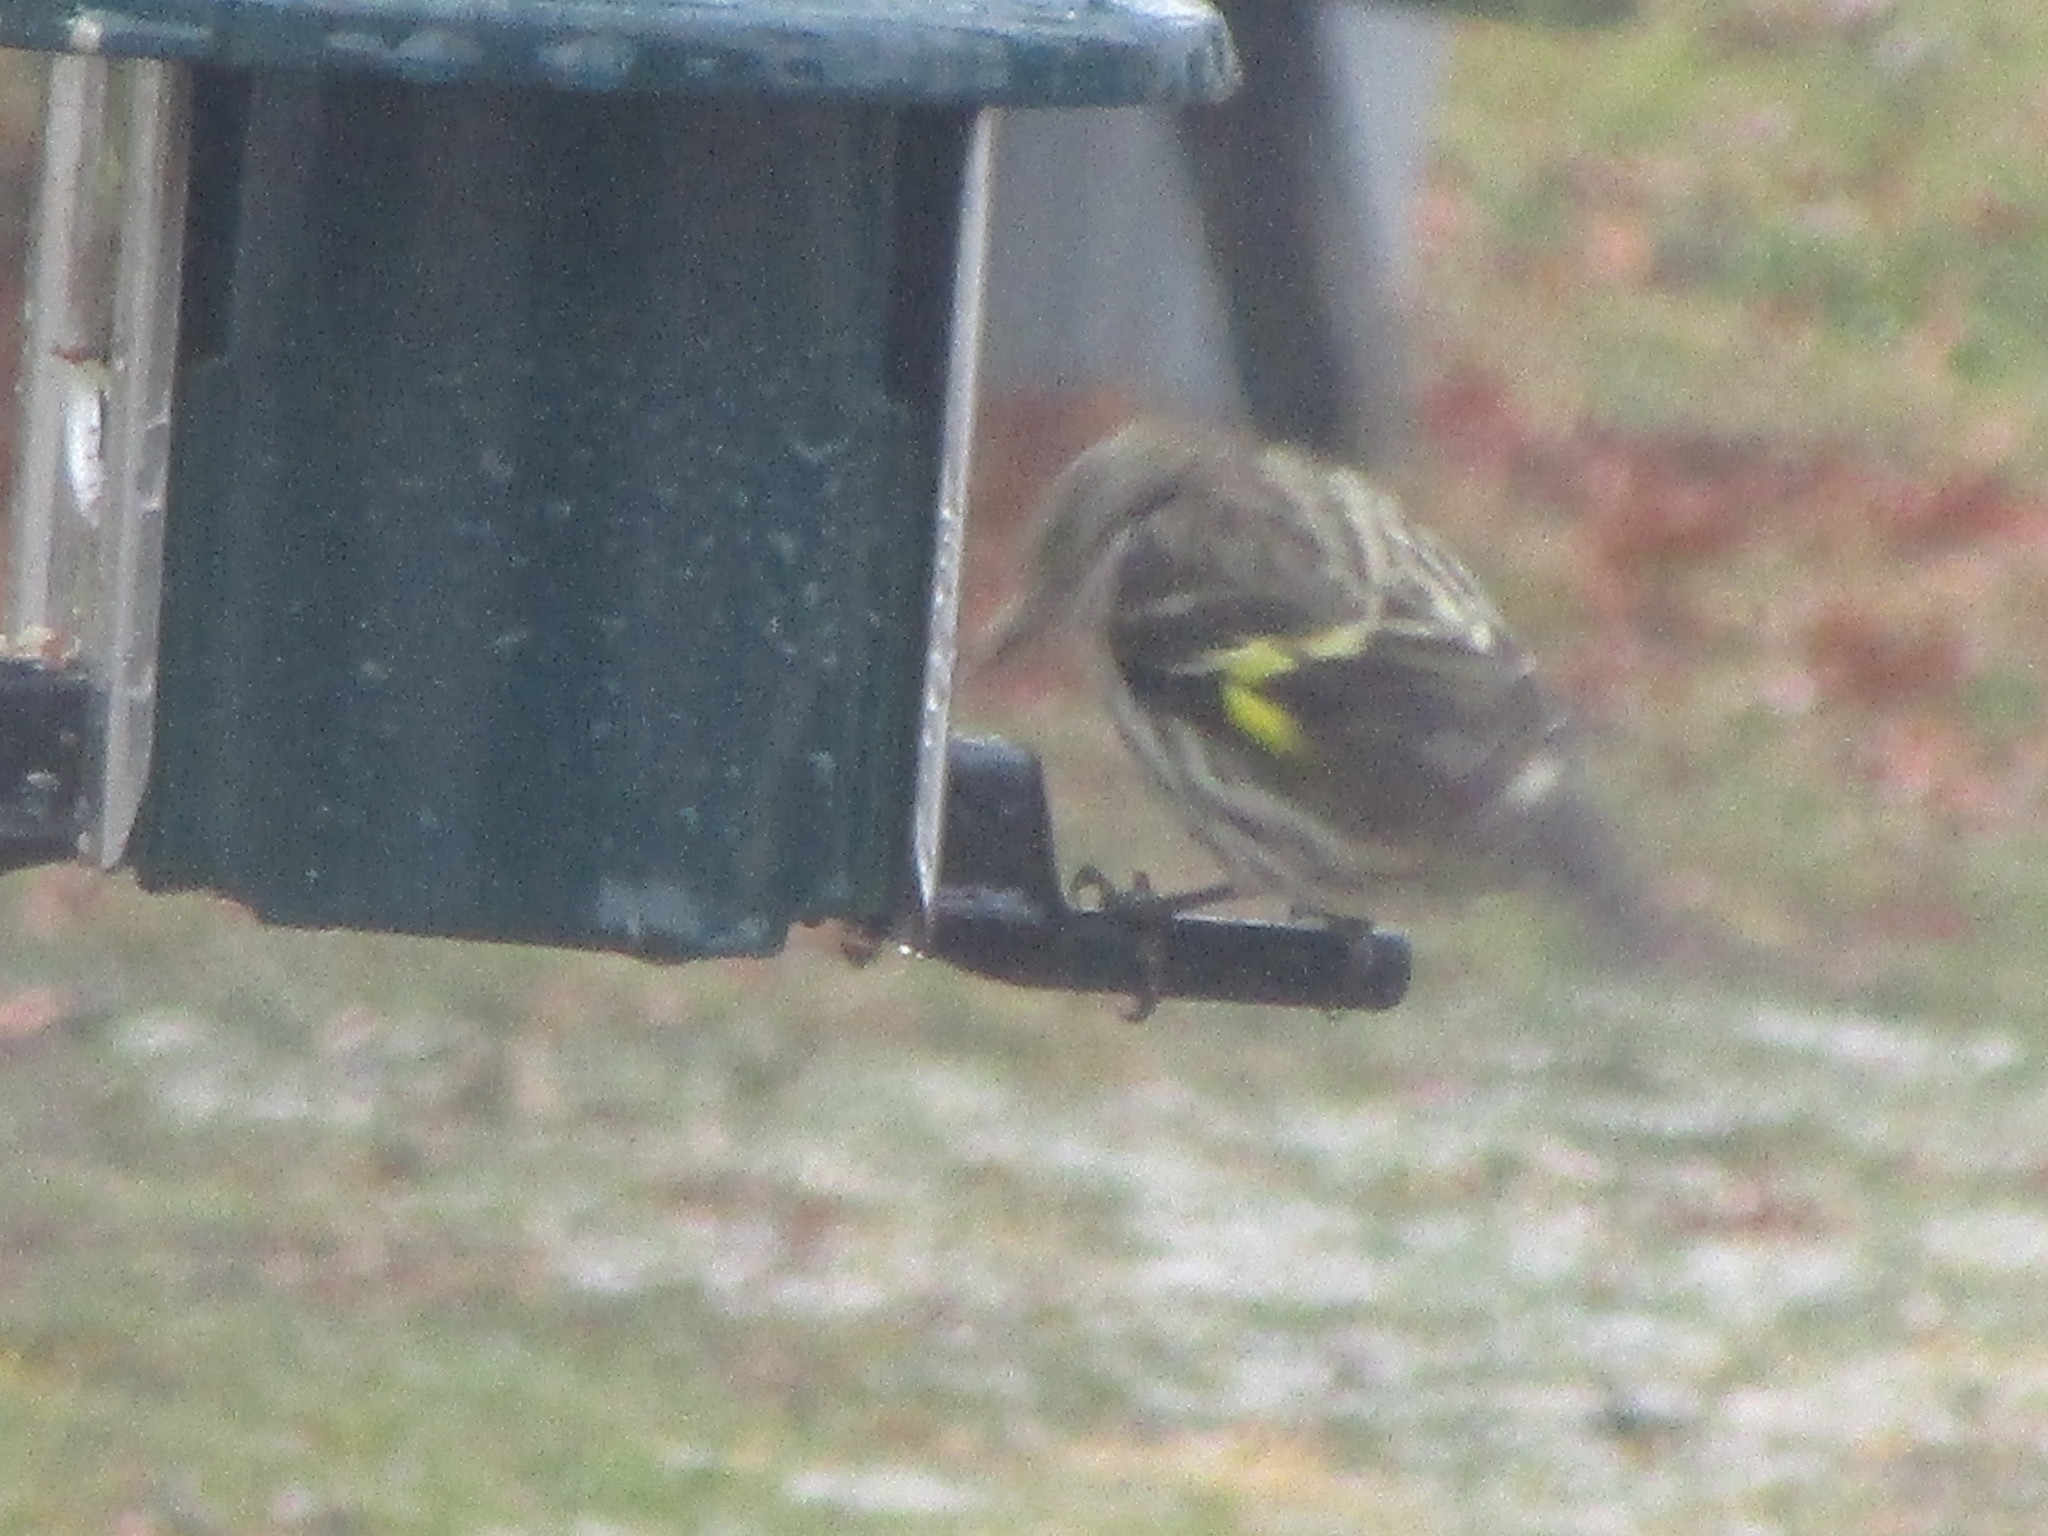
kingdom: Animalia
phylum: Chordata
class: Aves
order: Passeriformes
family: Fringillidae
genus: Spinus
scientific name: Spinus pinus
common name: Pine siskin
